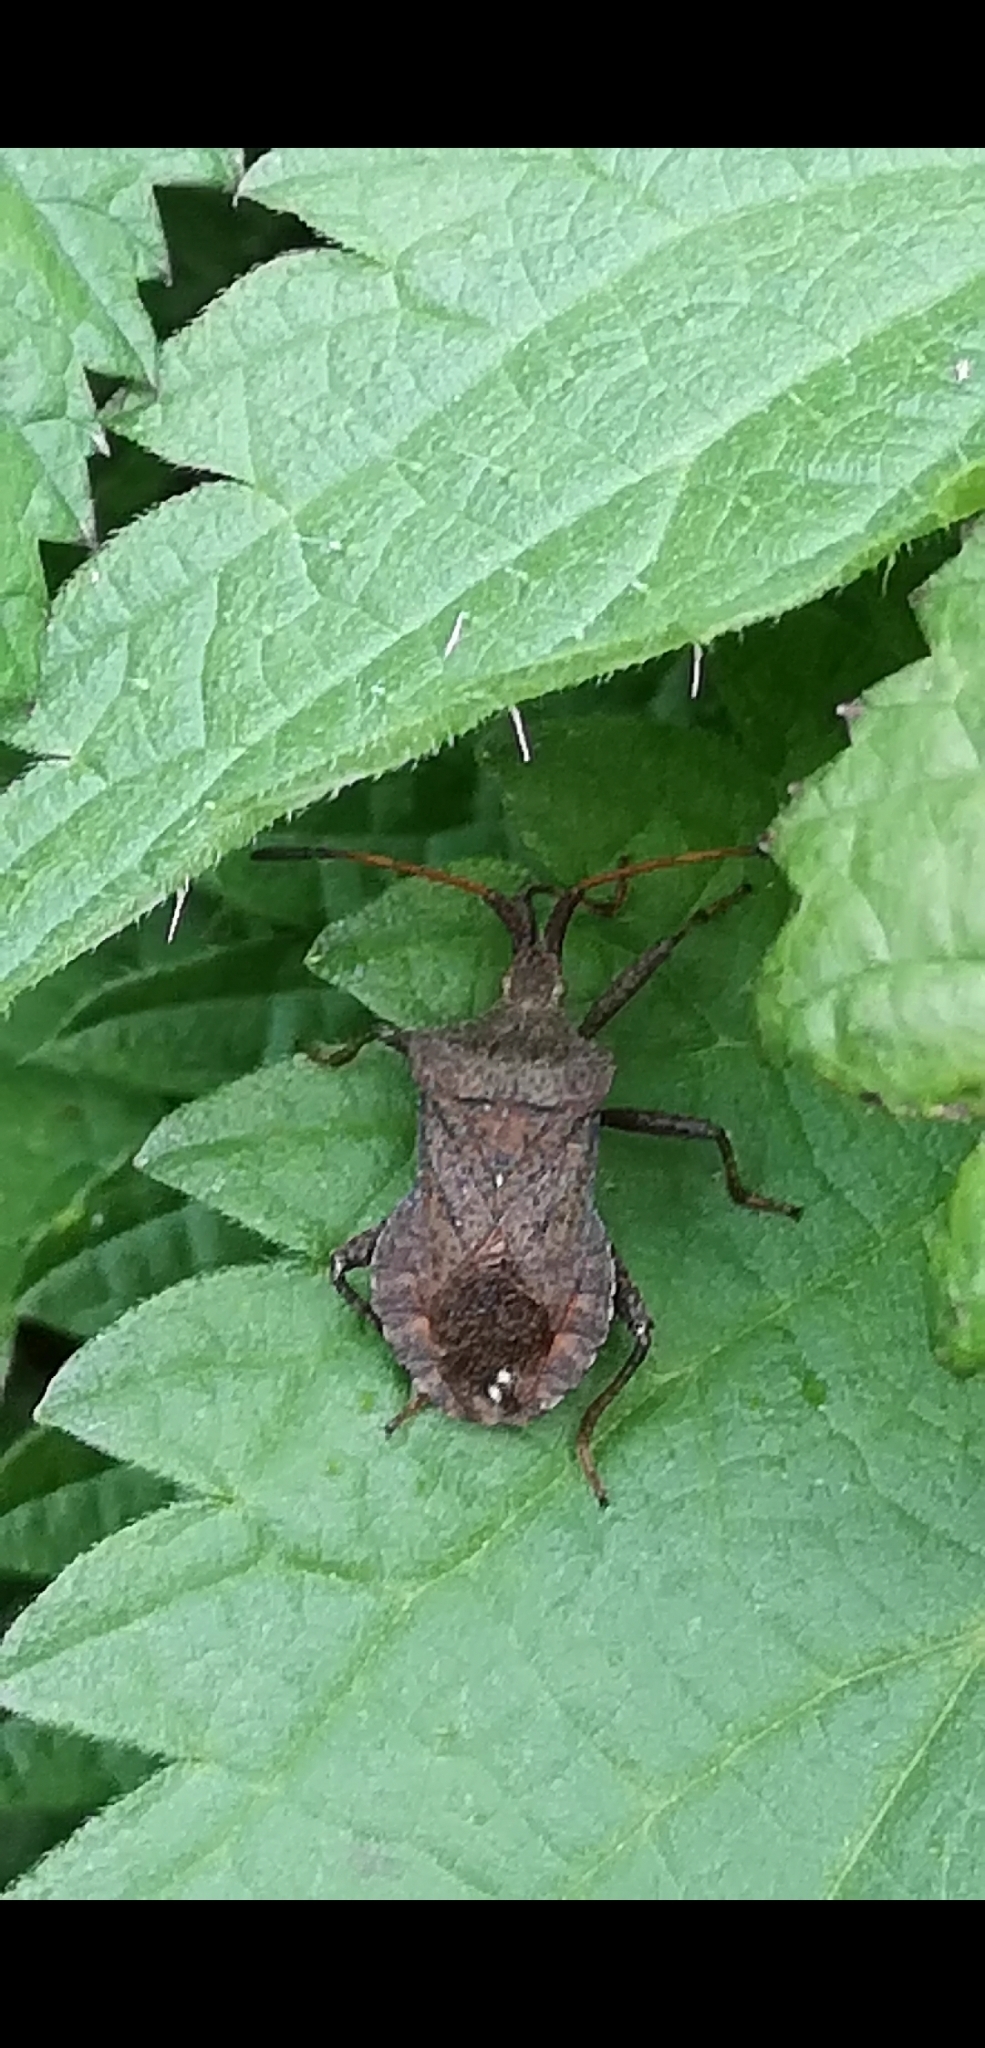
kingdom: Animalia
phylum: Arthropoda
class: Insecta
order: Hemiptera
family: Coreidae
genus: Coreus
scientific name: Coreus marginatus
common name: Dock bug
